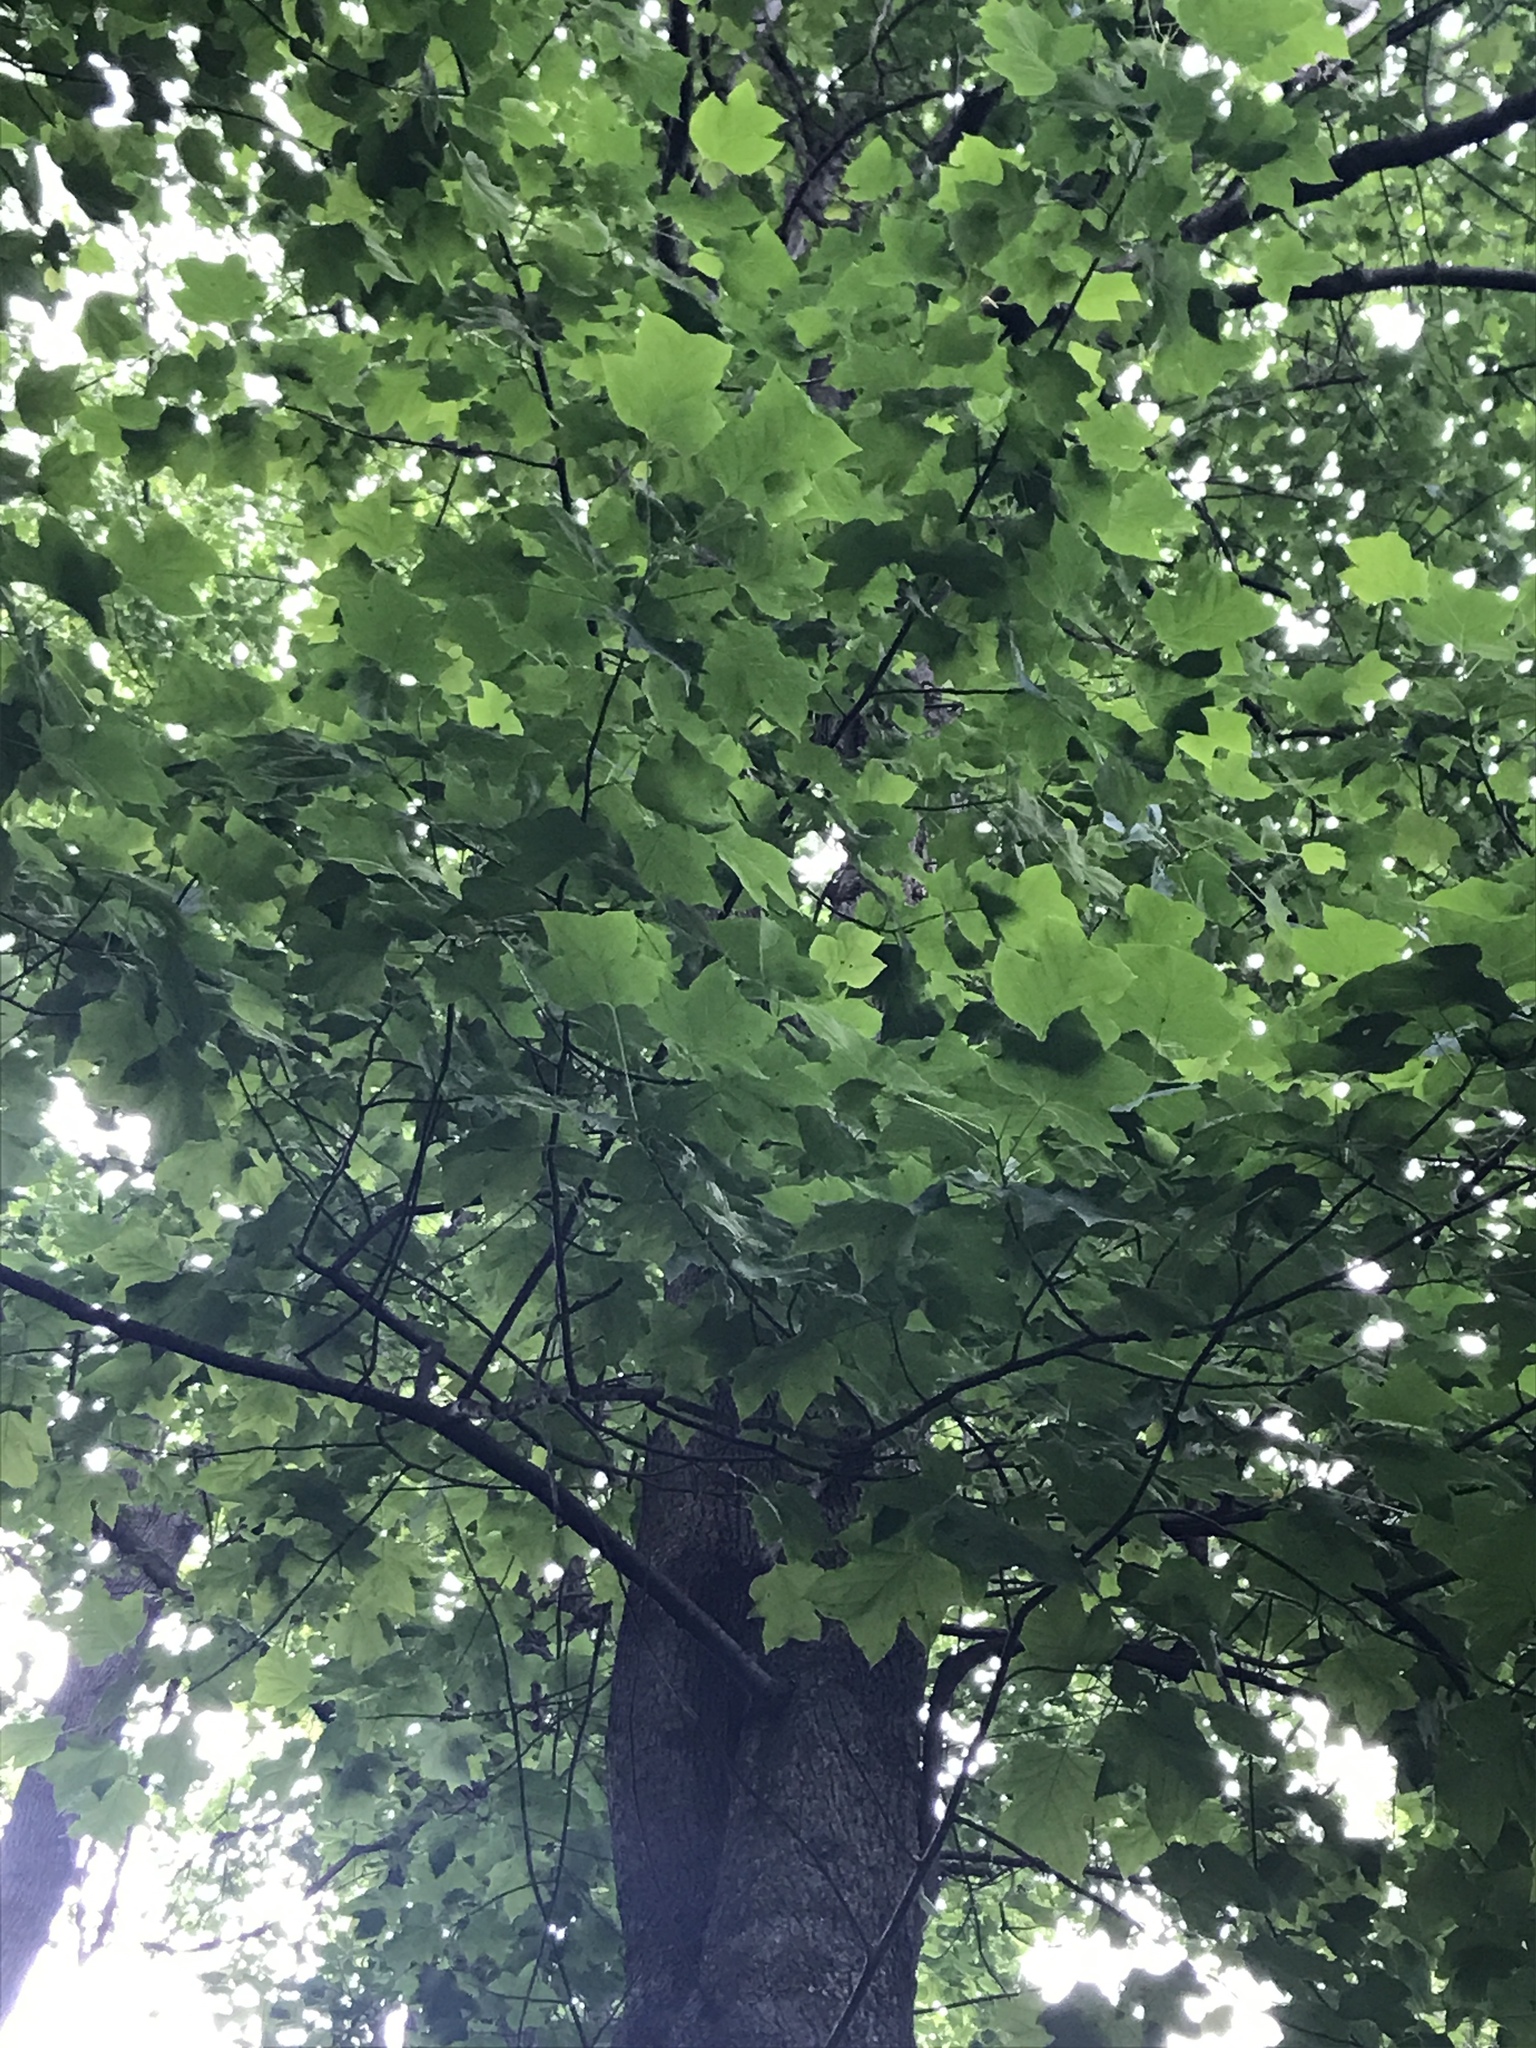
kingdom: Plantae
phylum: Tracheophyta
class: Magnoliopsida
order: Magnoliales
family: Magnoliaceae
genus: Liriodendron
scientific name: Liriodendron tulipifera
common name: Tulip tree
